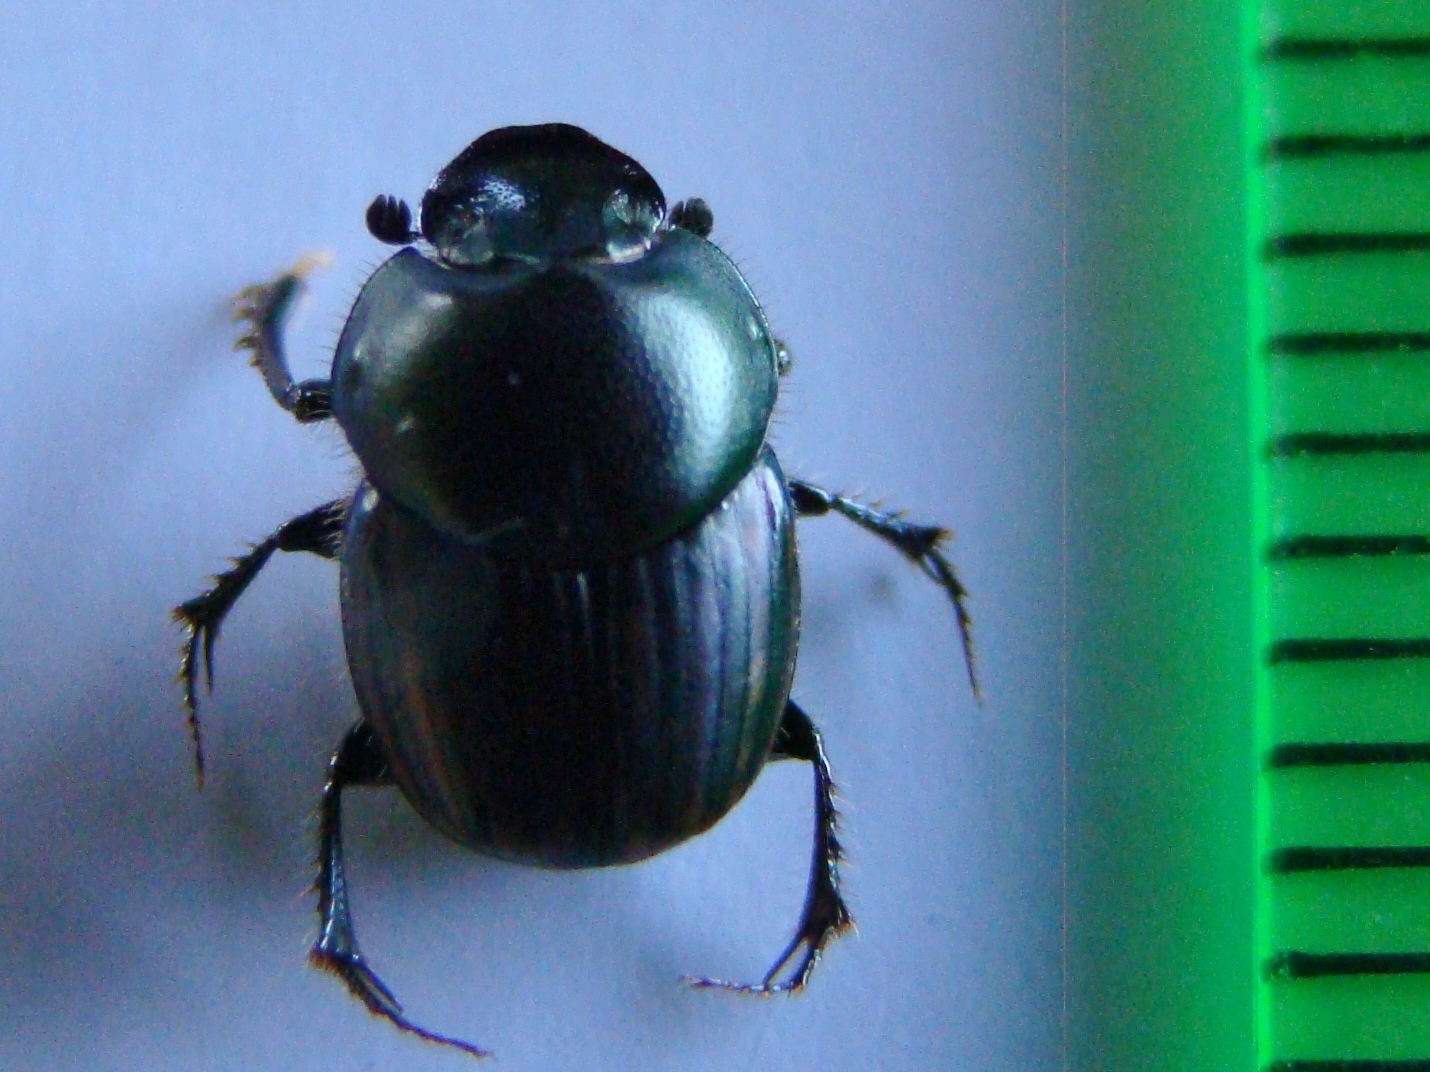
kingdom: Animalia
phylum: Arthropoda
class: Insecta
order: Coleoptera
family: Scarabaeidae
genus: Onthophagus
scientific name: Onthophagus posticus
